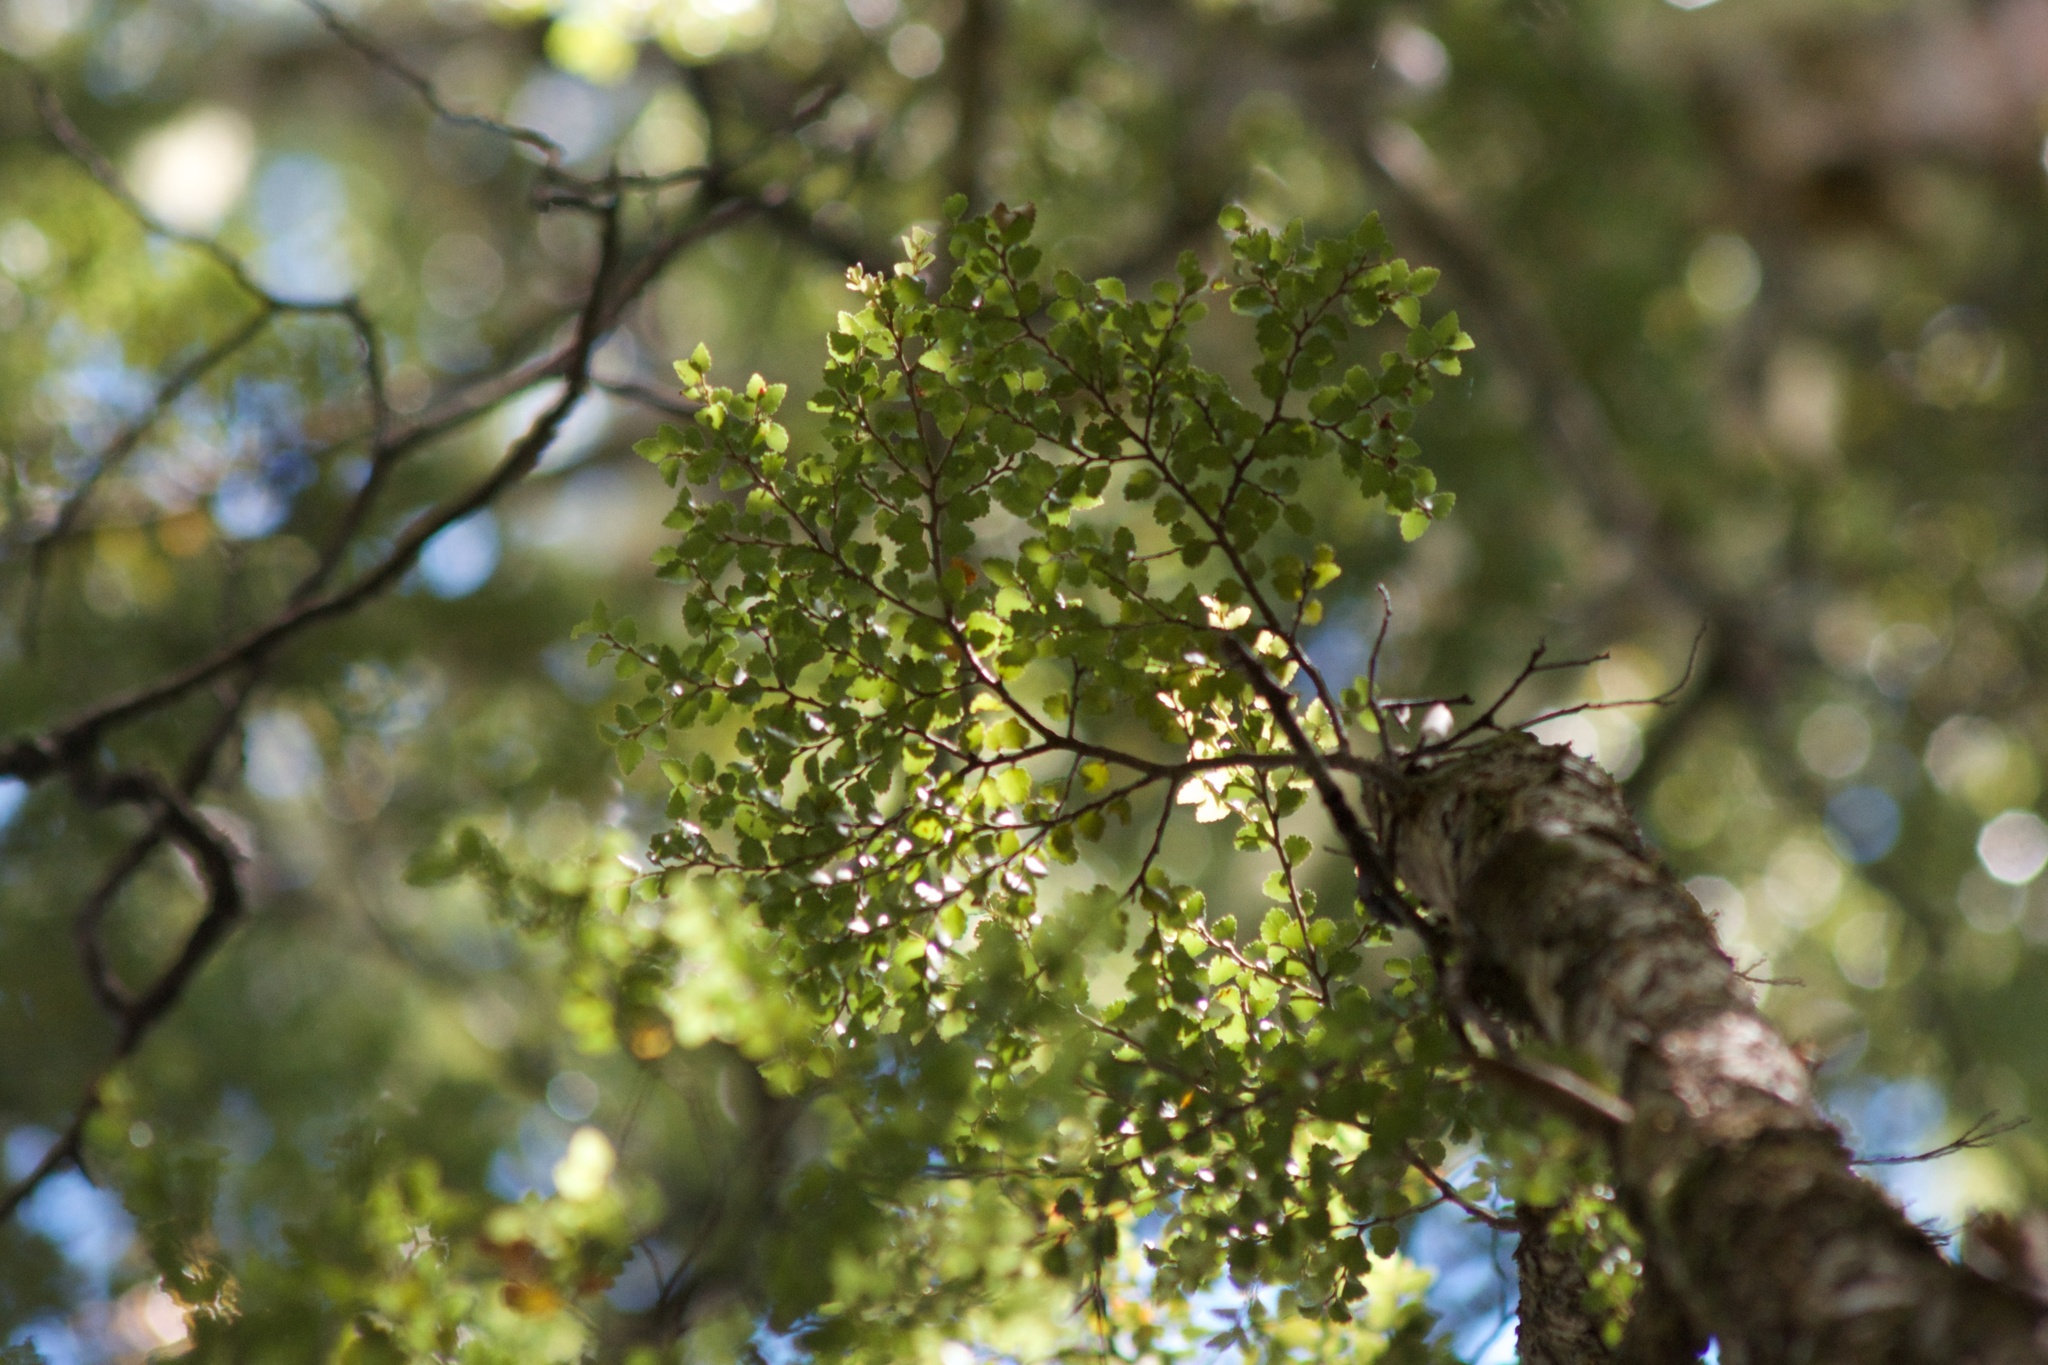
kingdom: Plantae
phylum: Tracheophyta
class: Magnoliopsida
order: Fagales
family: Nothofagaceae
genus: Nothofagus
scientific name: Nothofagus menziesii
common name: Silver beech
